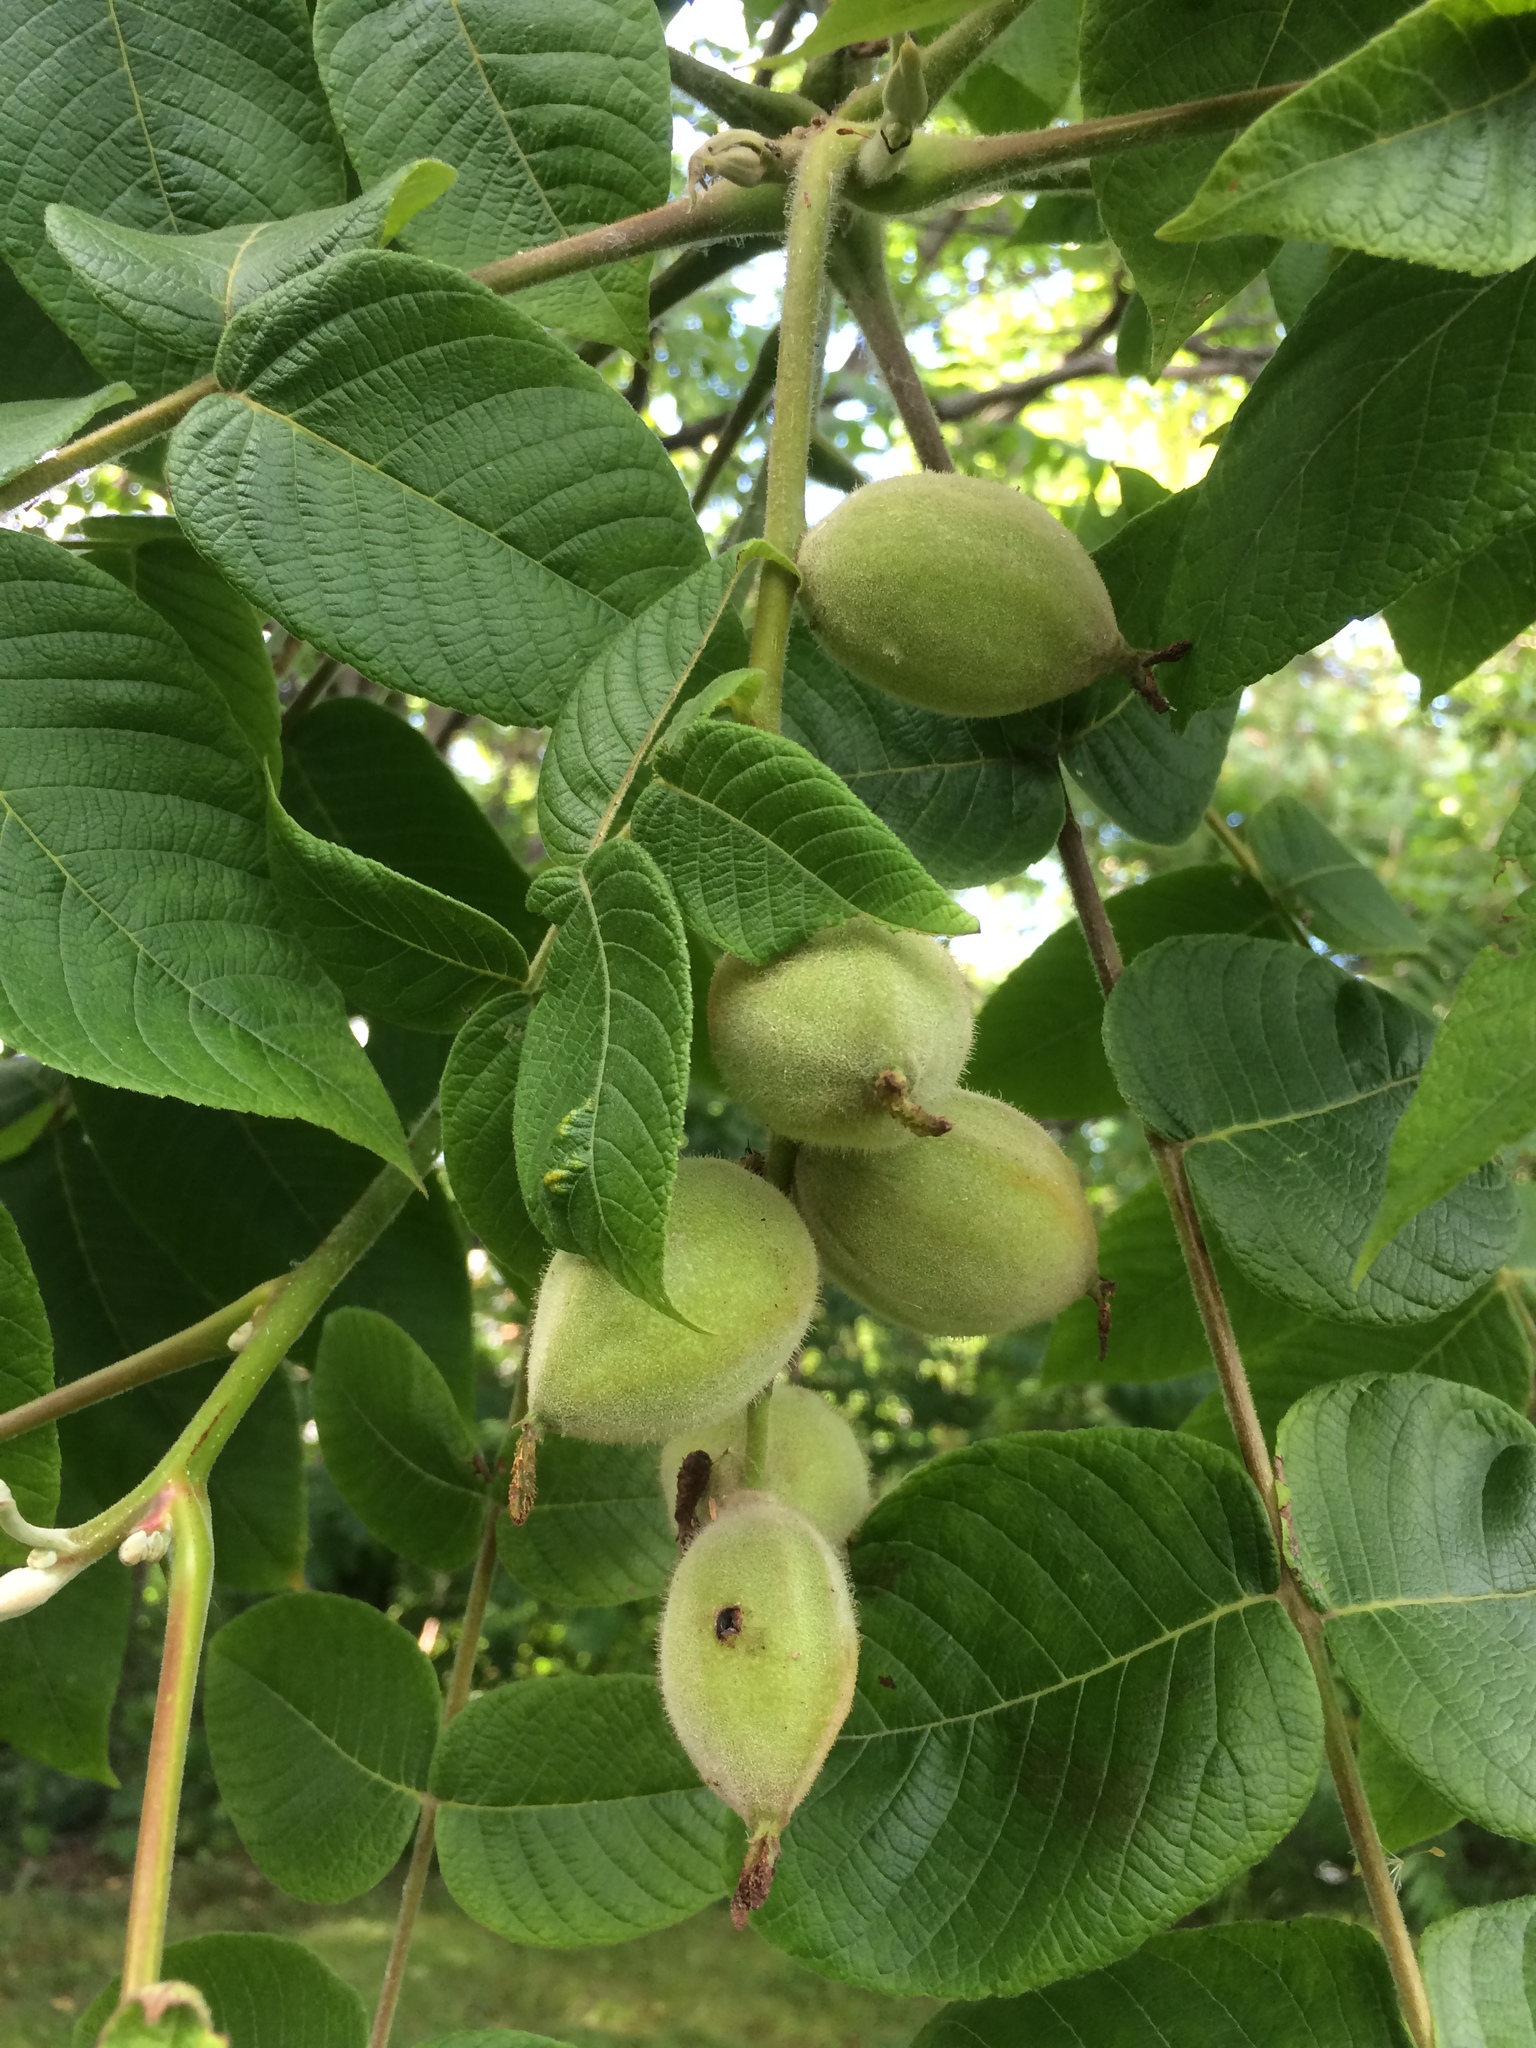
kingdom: Plantae
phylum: Tracheophyta
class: Magnoliopsida
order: Fagales
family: Juglandaceae
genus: Juglans
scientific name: Juglans cinerea
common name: Butternut
